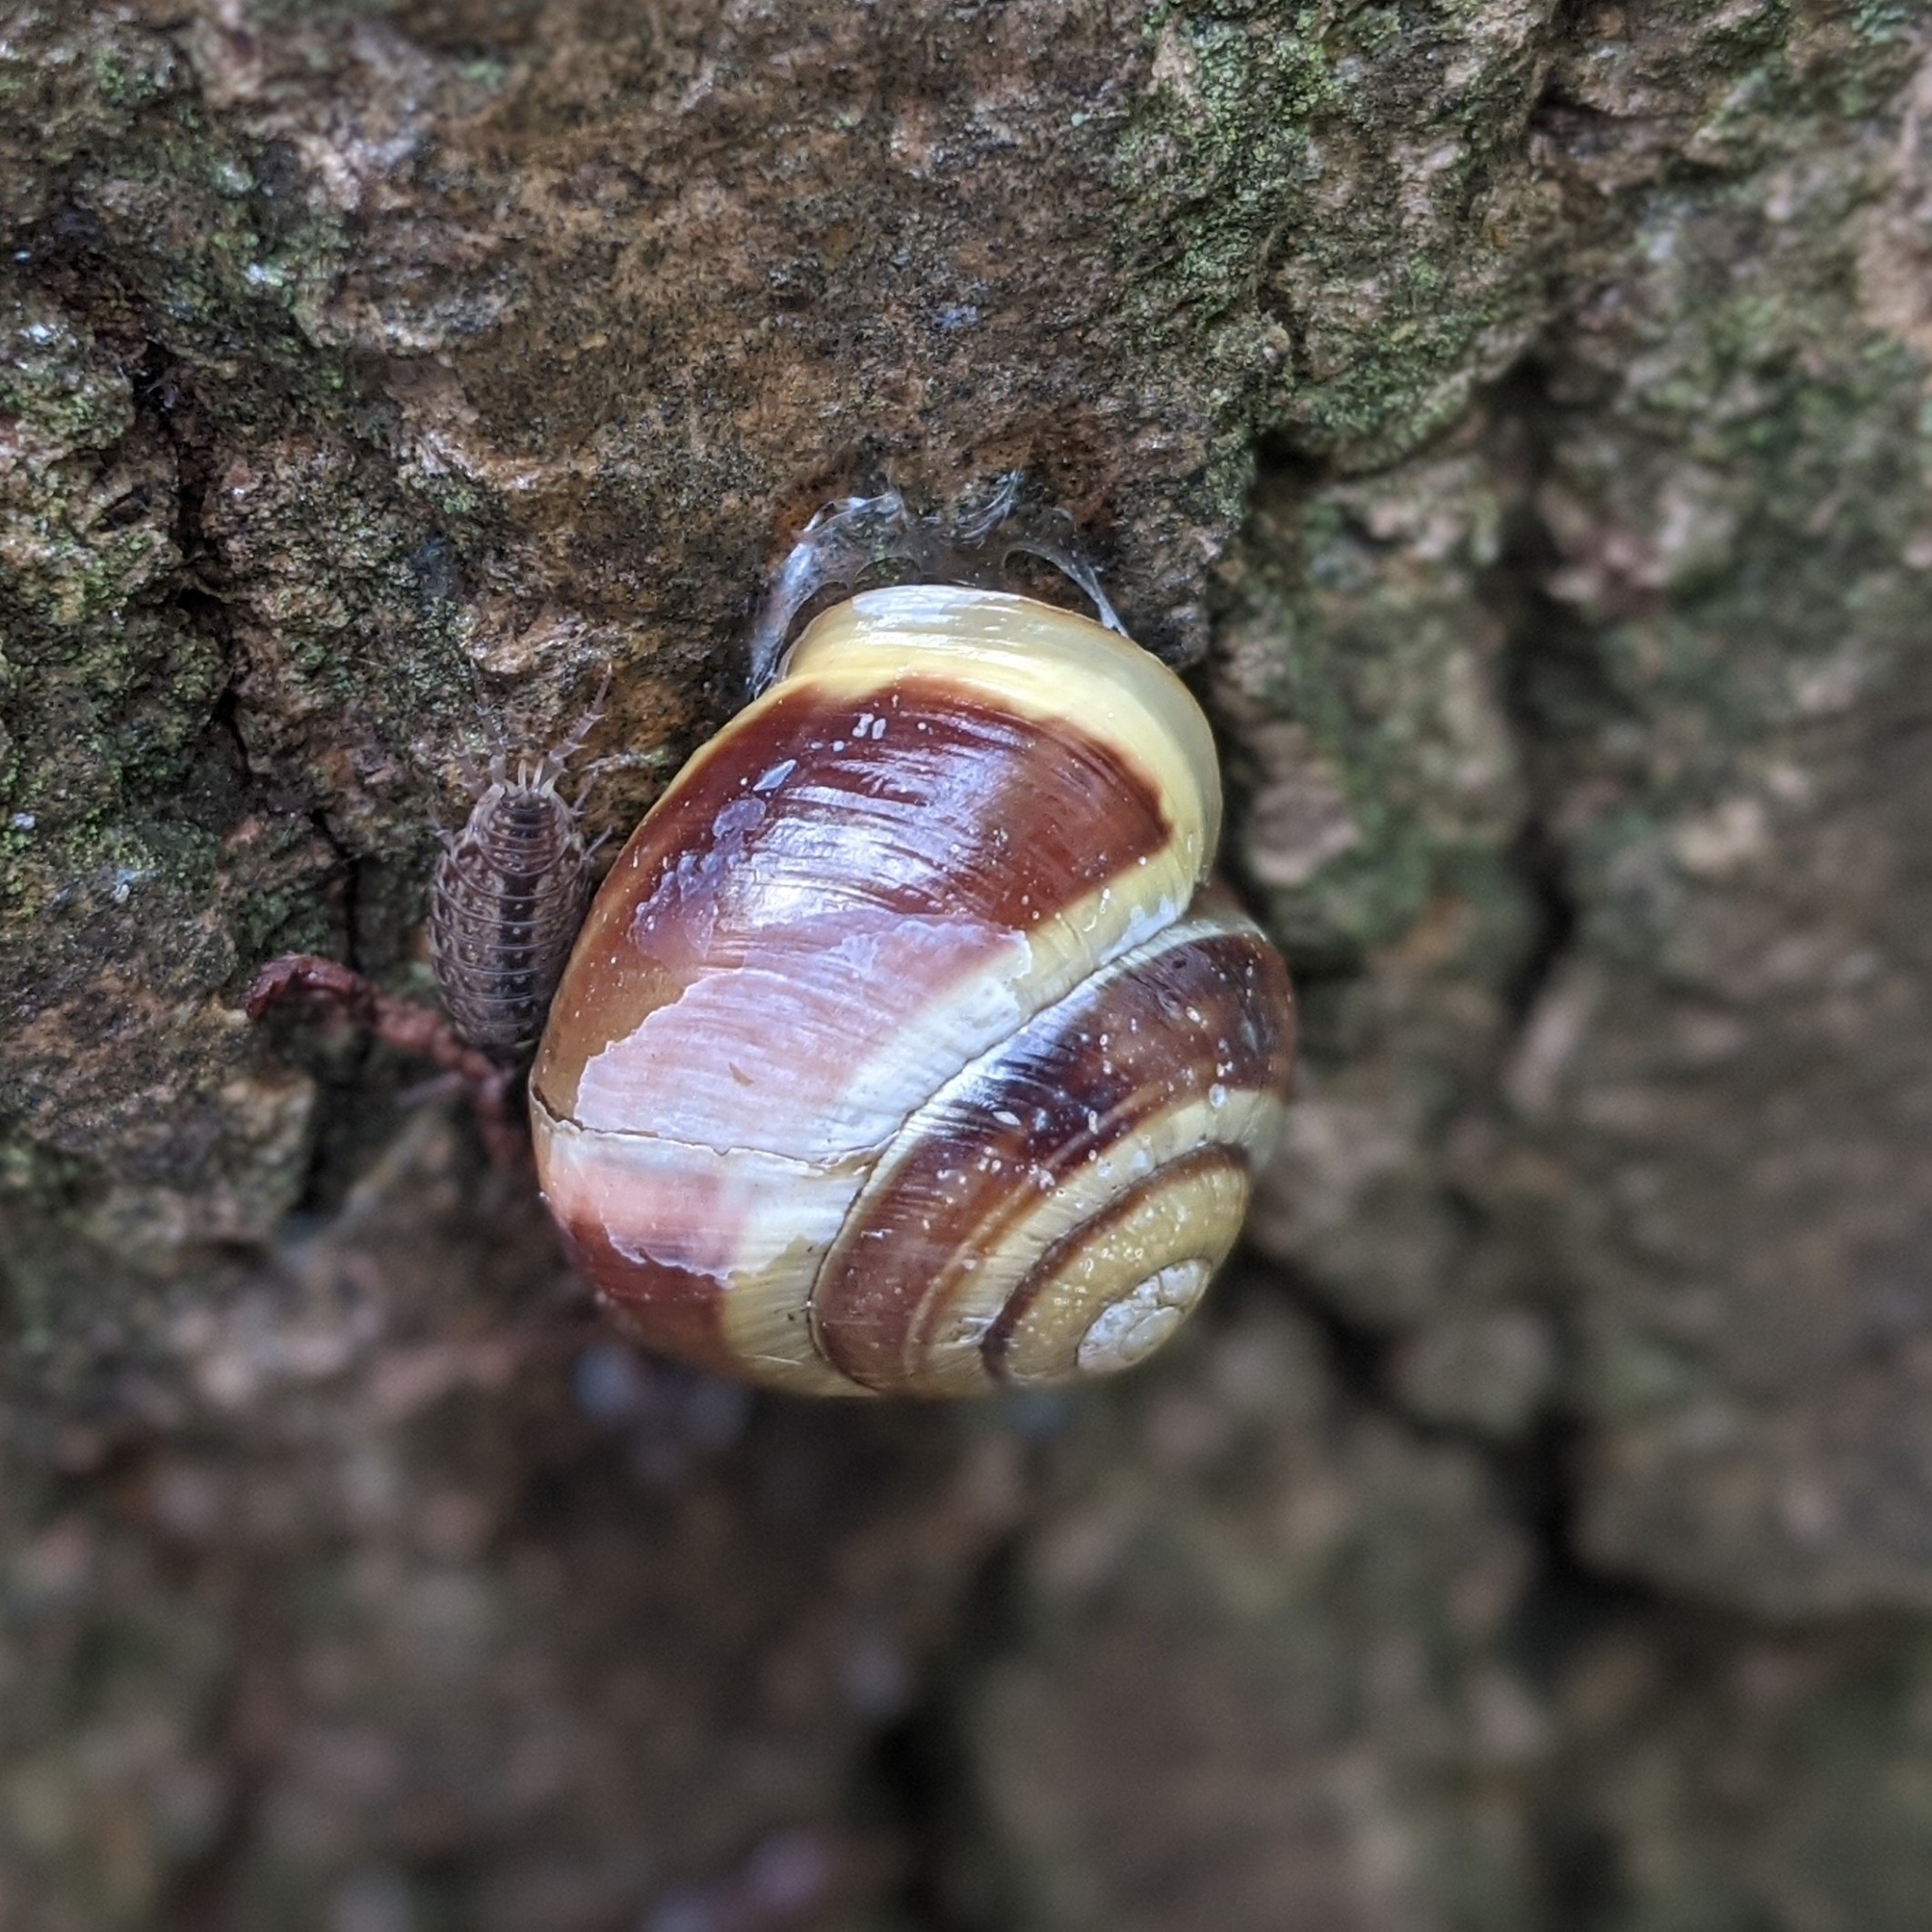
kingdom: Animalia
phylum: Mollusca
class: Gastropoda
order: Stylommatophora
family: Helicidae
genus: Cepaea
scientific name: Cepaea hortensis
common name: White-lip gardensnail
